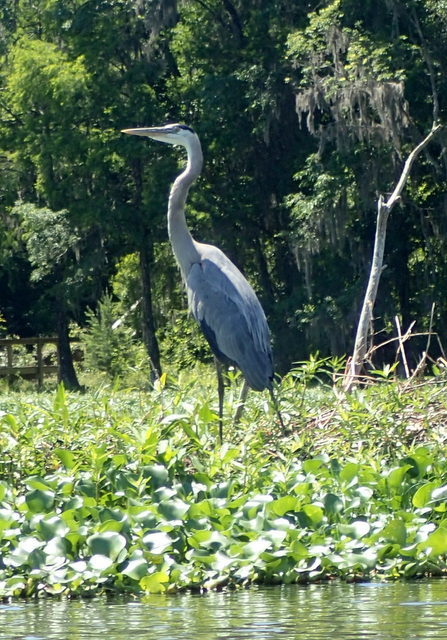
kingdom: Animalia
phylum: Chordata
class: Aves
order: Pelecaniformes
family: Ardeidae
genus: Ardea
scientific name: Ardea herodias
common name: Great blue heron
